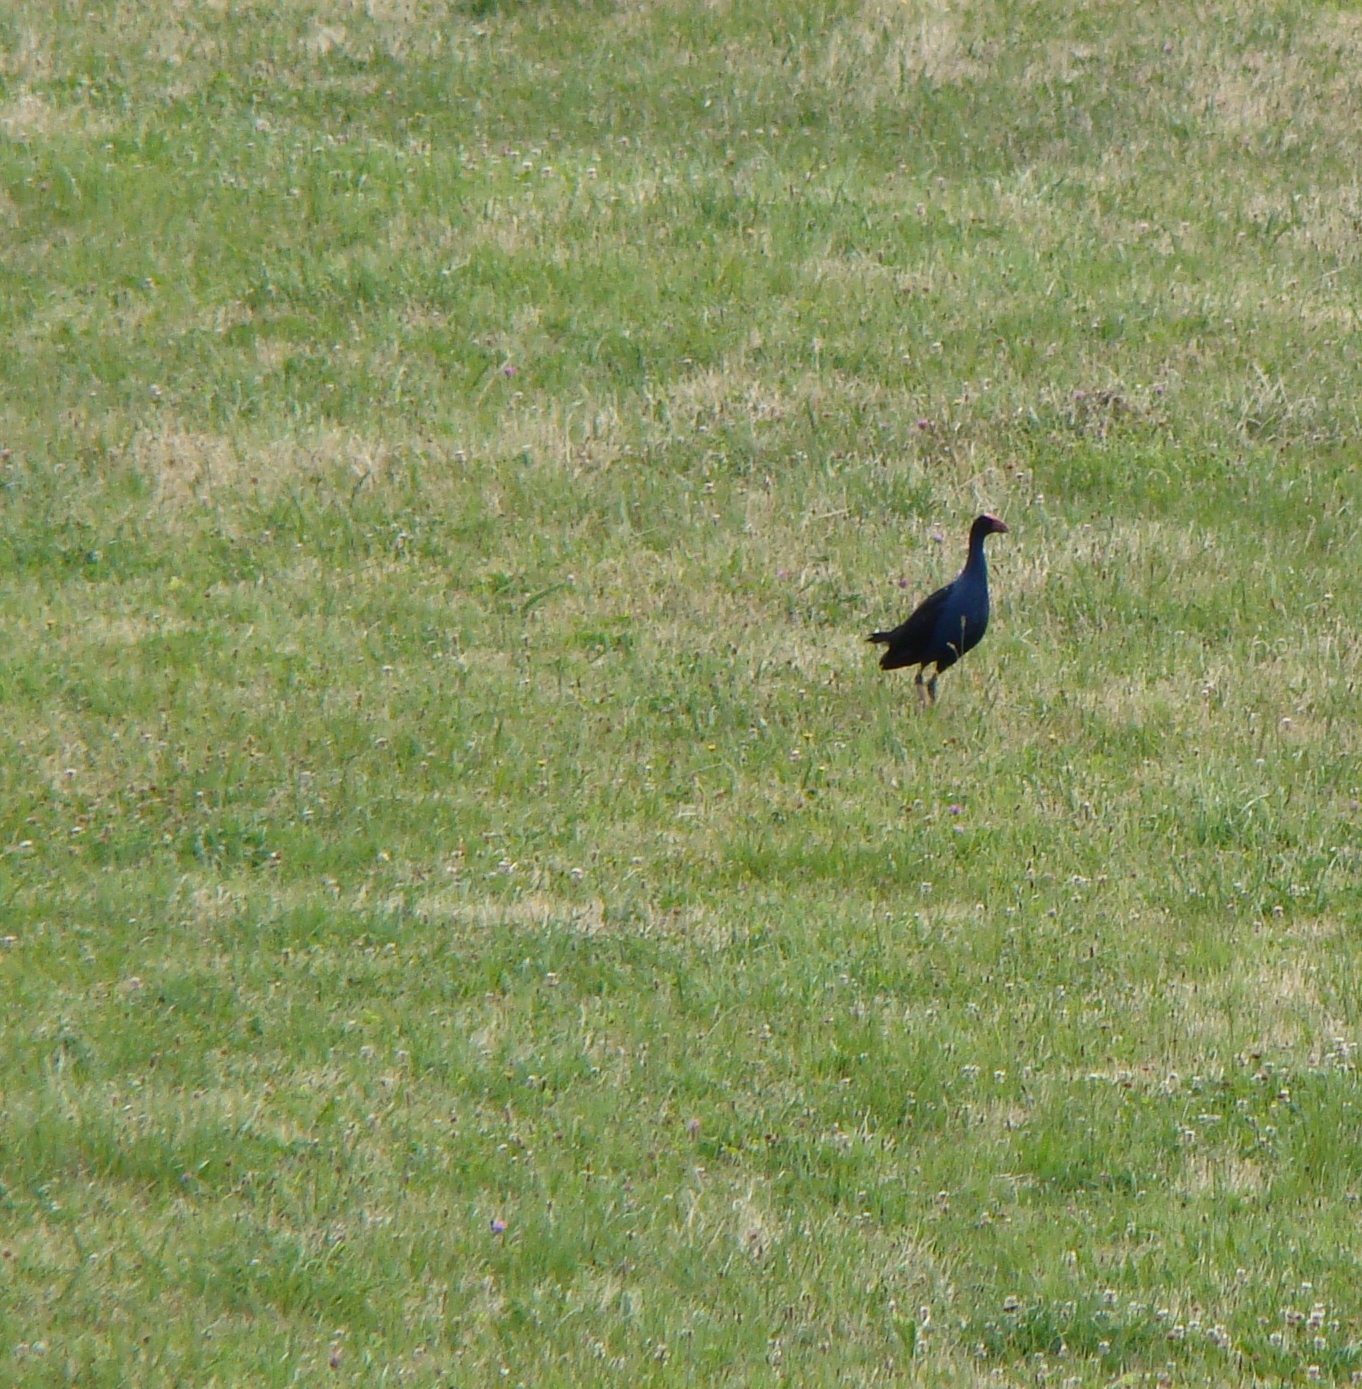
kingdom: Animalia
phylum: Chordata
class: Aves
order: Gruiformes
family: Rallidae
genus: Porphyrio
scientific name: Porphyrio melanotus
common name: Australasian swamphen
